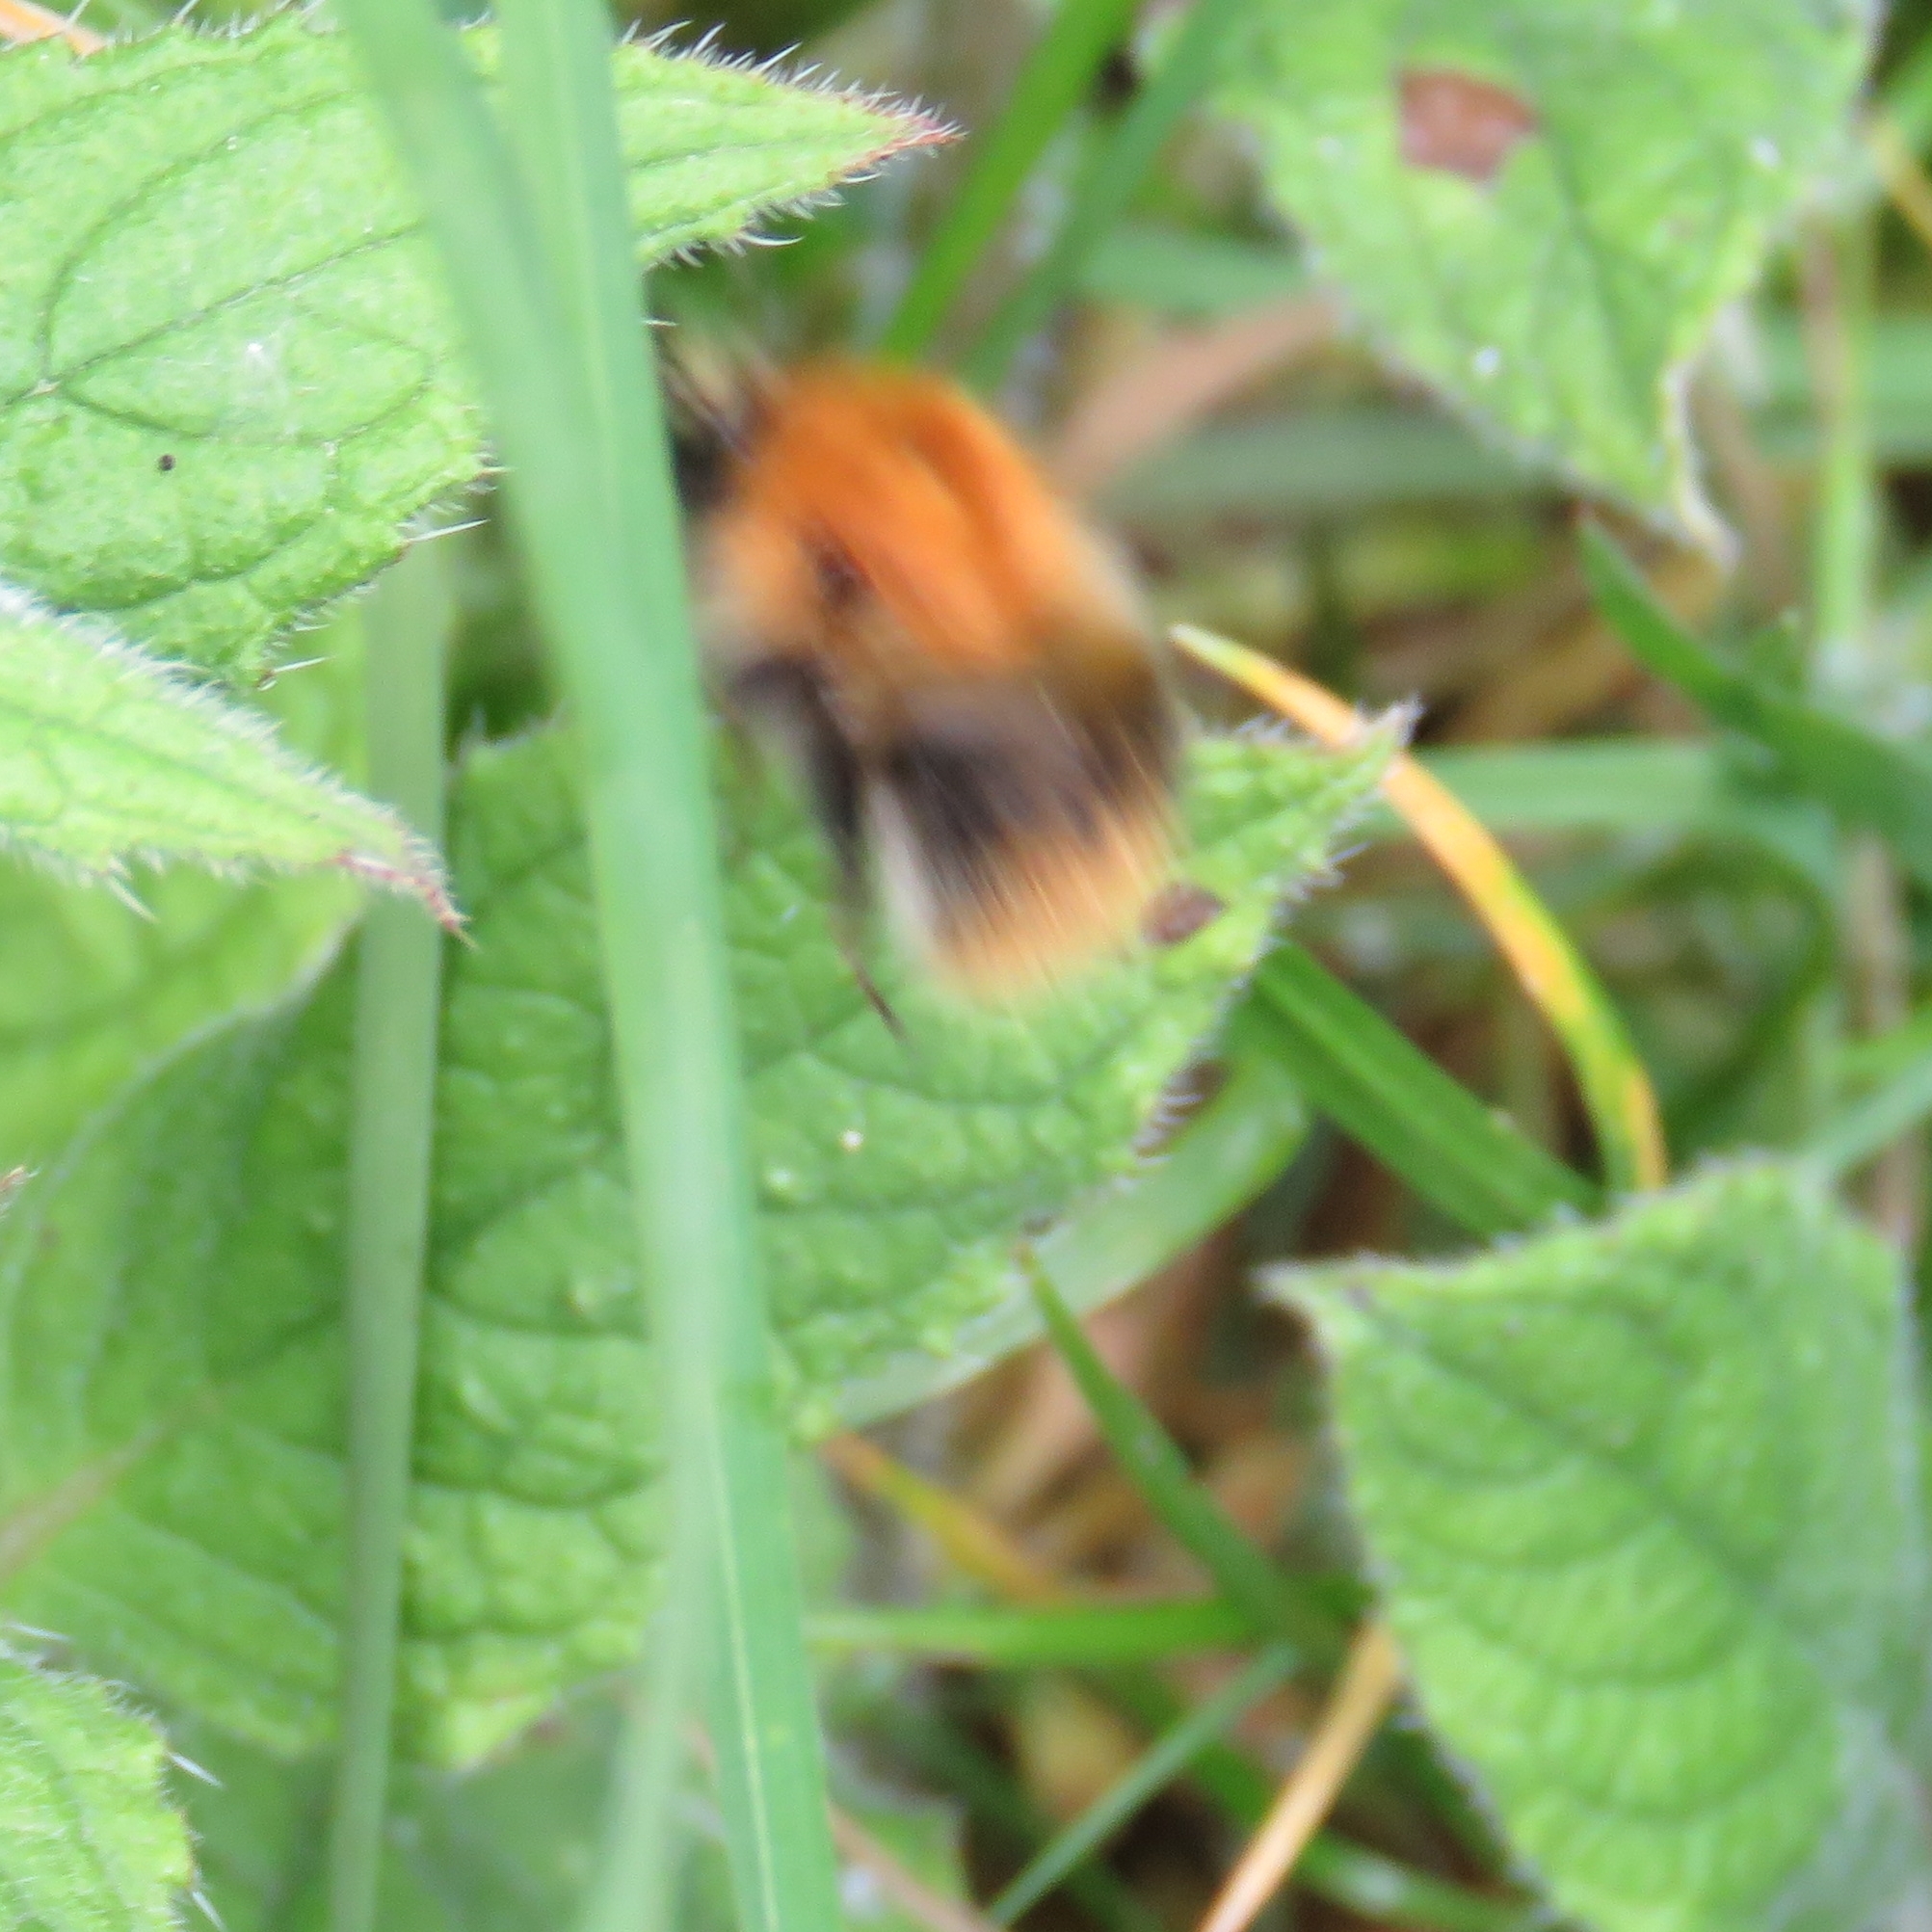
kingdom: Animalia
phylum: Arthropoda
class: Insecta
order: Hymenoptera
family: Apidae
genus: Bombus
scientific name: Bombus pascuorum
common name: Common carder bee
